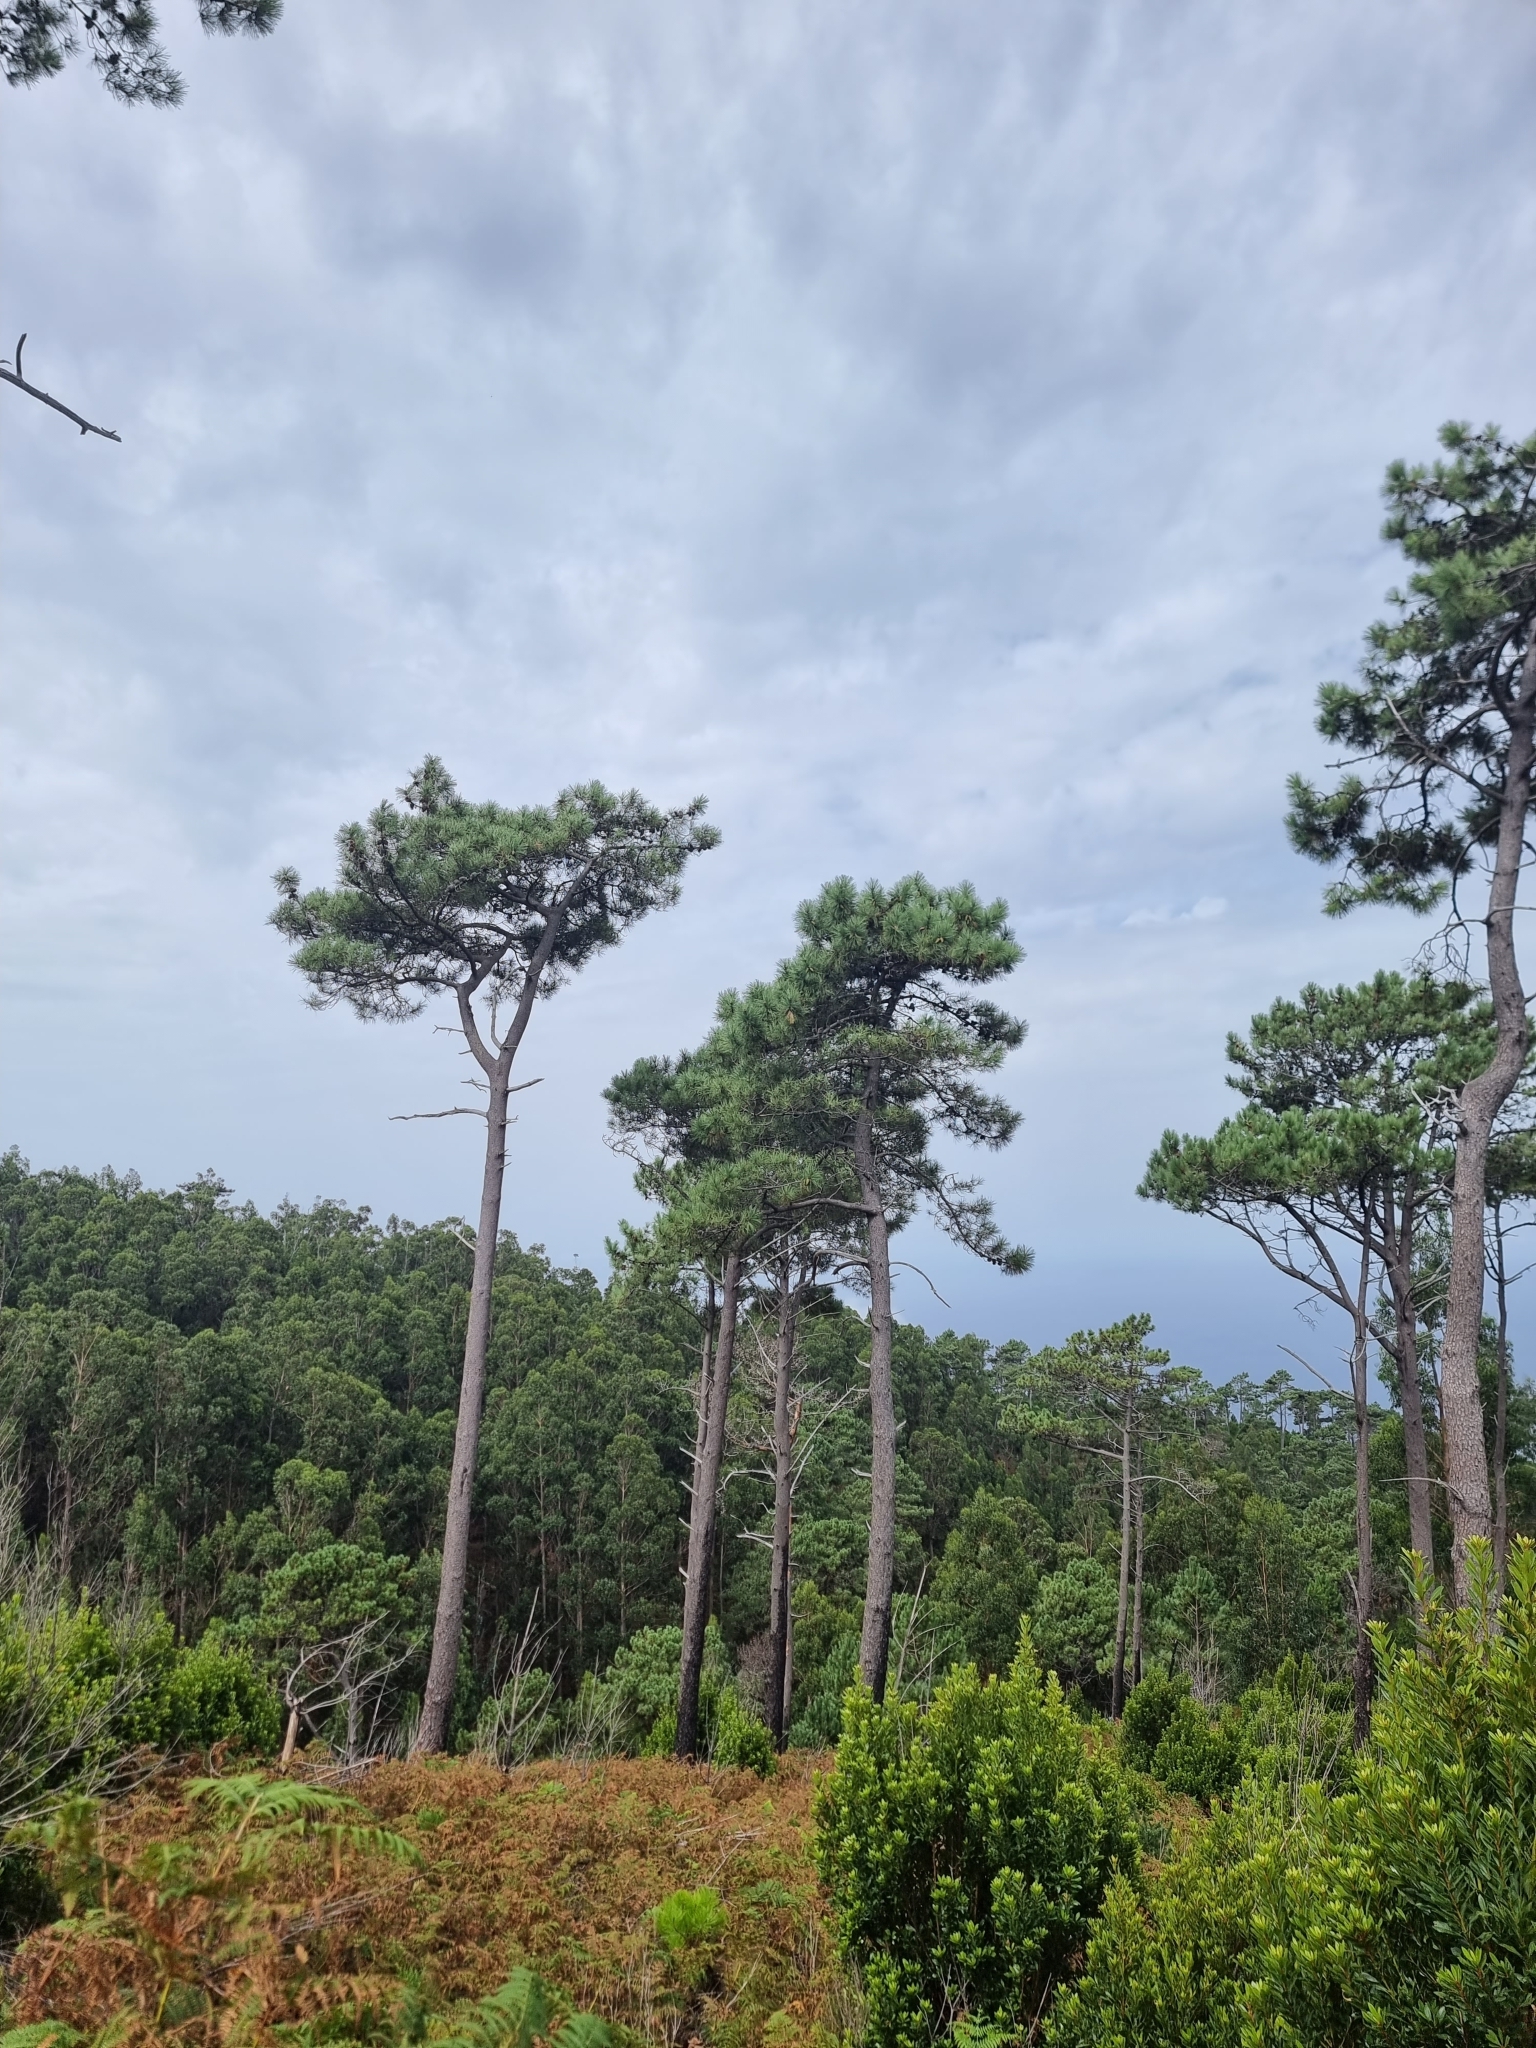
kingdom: Plantae
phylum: Tracheophyta
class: Pinopsida
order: Pinales
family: Pinaceae
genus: Pinus
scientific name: Pinus pinaster
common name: Maritime pine
